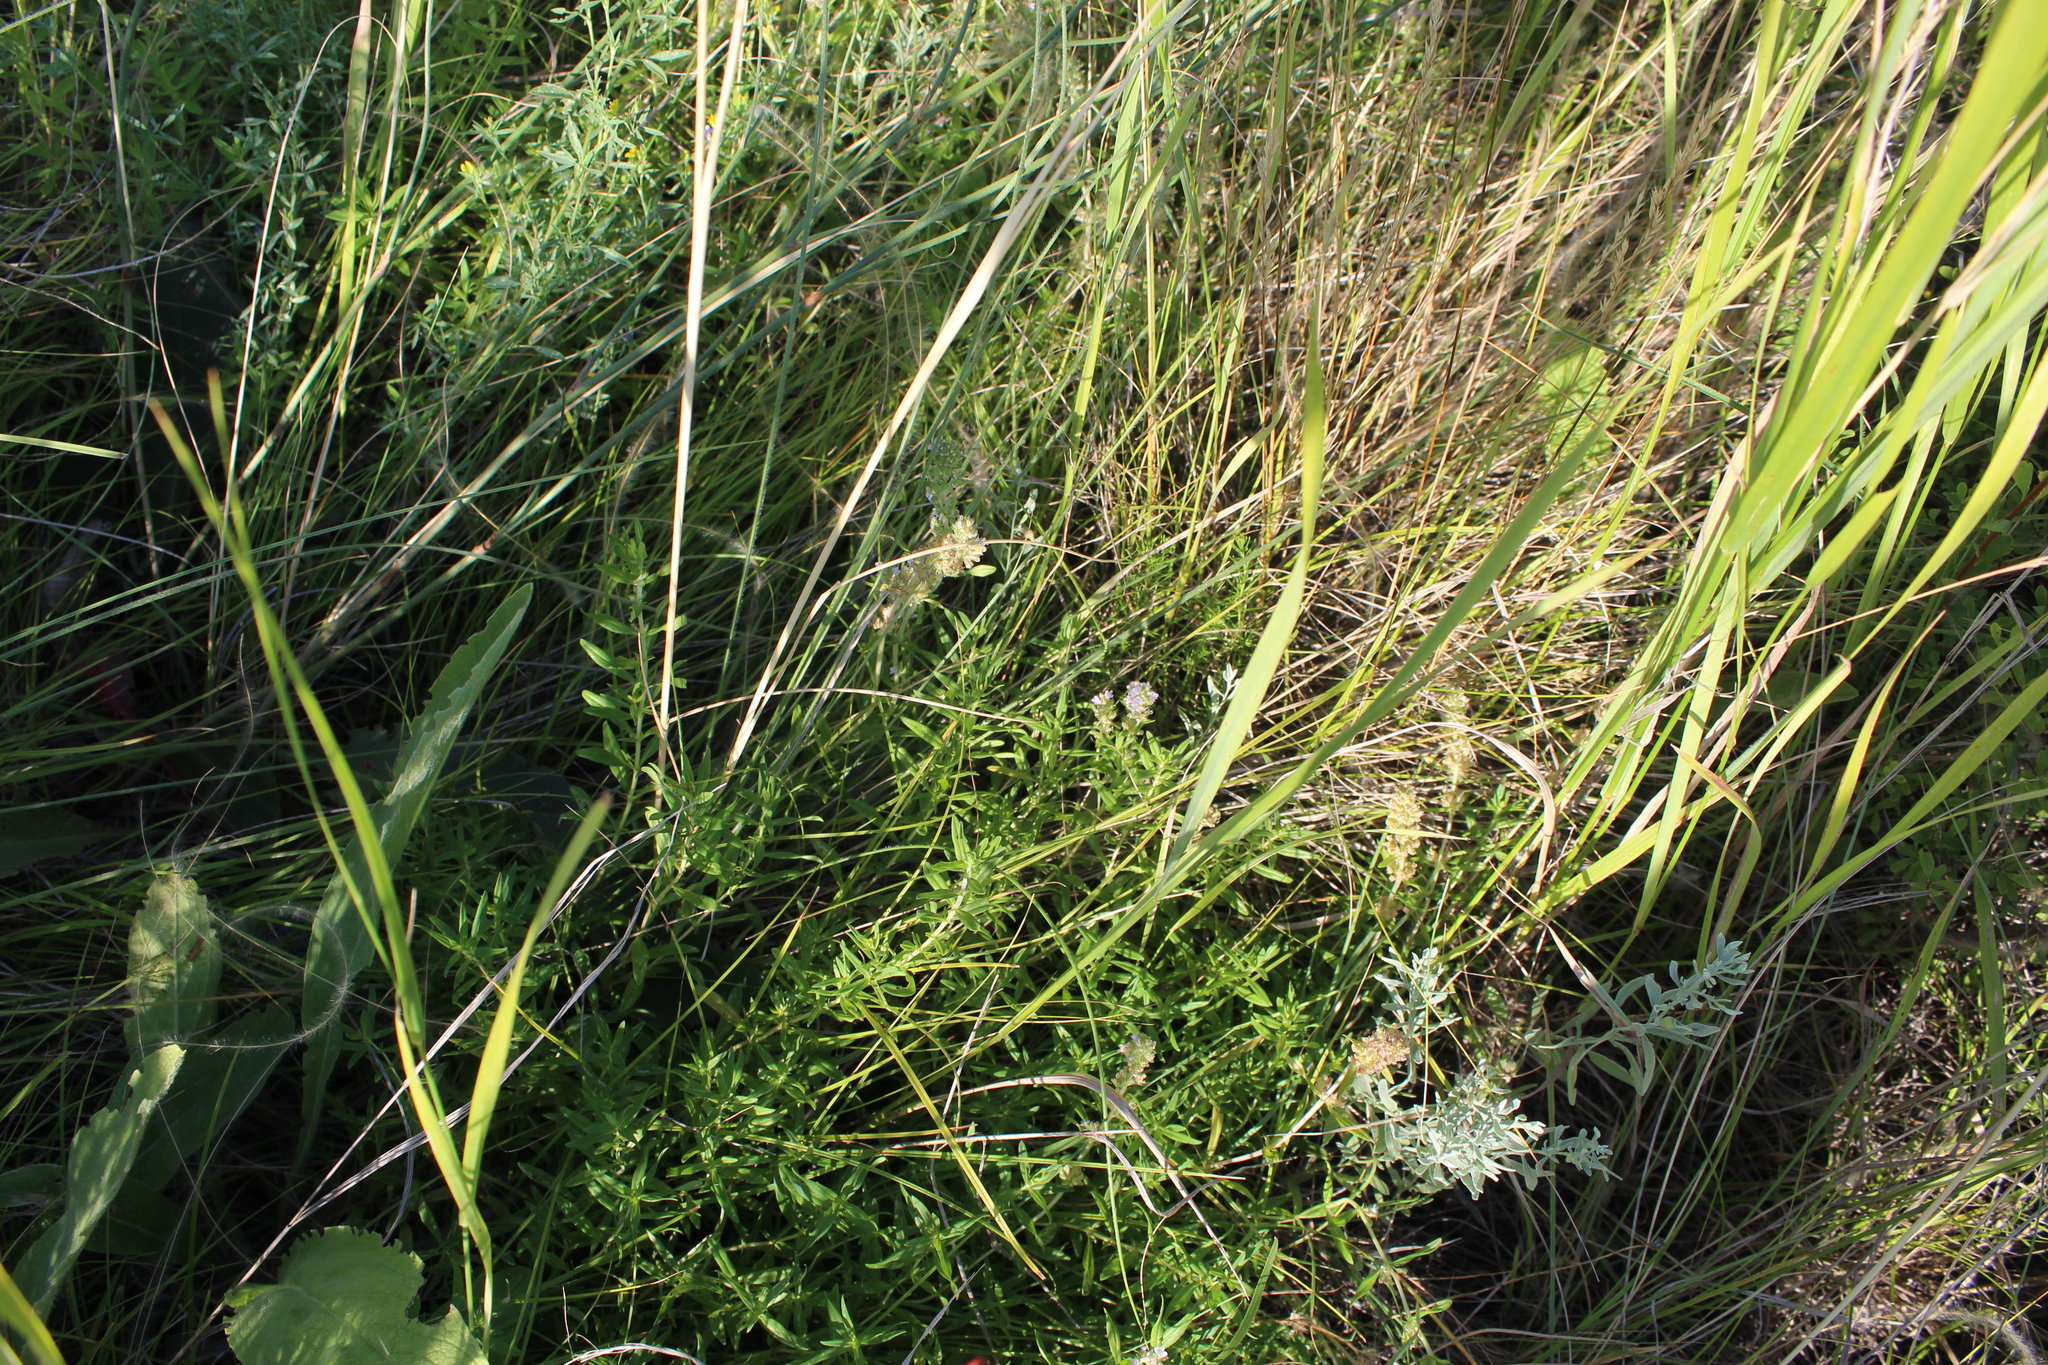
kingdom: Plantae
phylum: Tracheophyta
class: Magnoliopsida
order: Lamiales
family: Lamiaceae
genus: Thymus
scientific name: Thymus pannonicus
